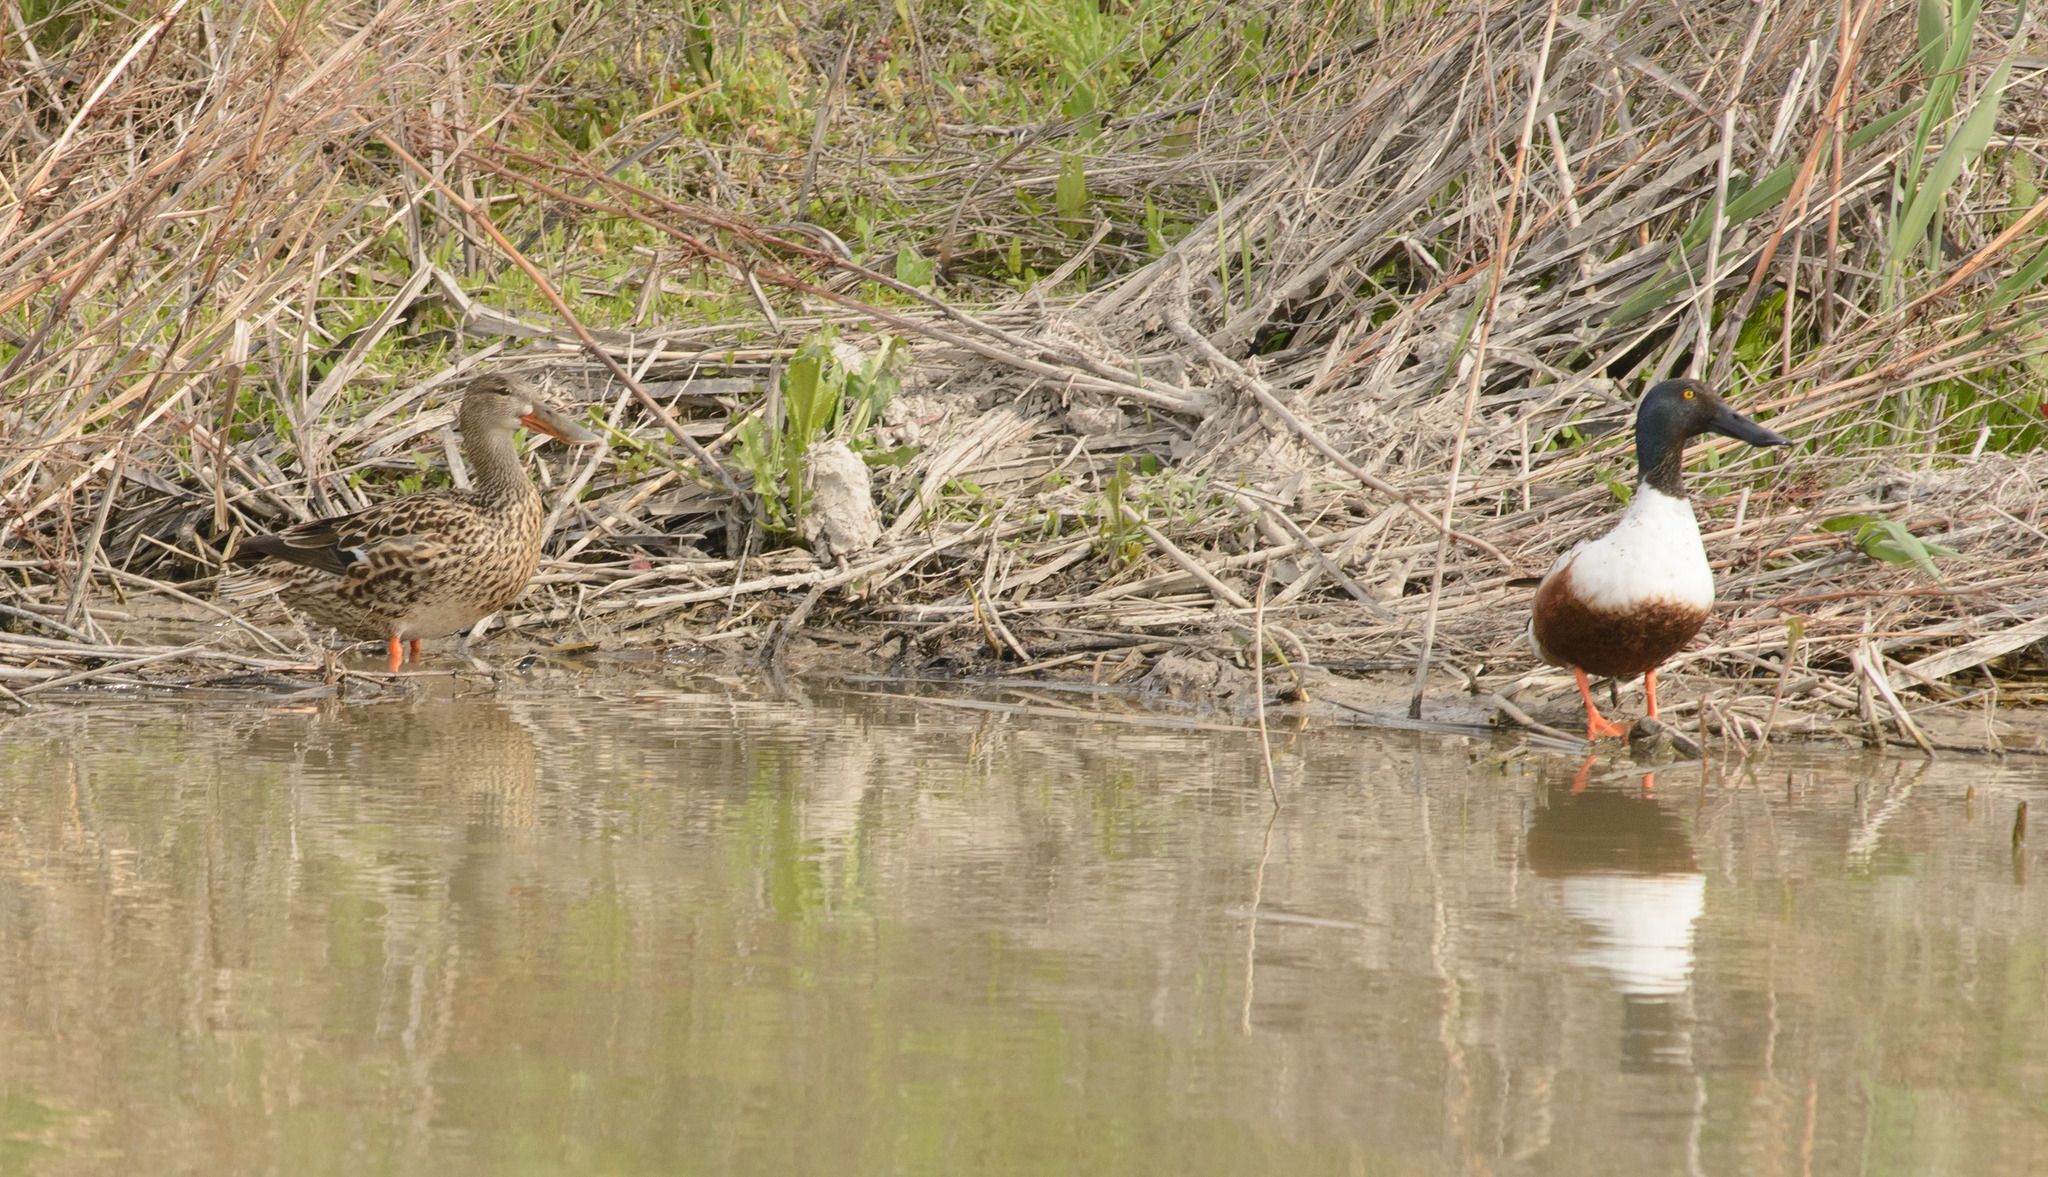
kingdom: Animalia
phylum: Chordata
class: Aves
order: Anseriformes
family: Anatidae
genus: Spatula
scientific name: Spatula clypeata
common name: Northern shoveler
